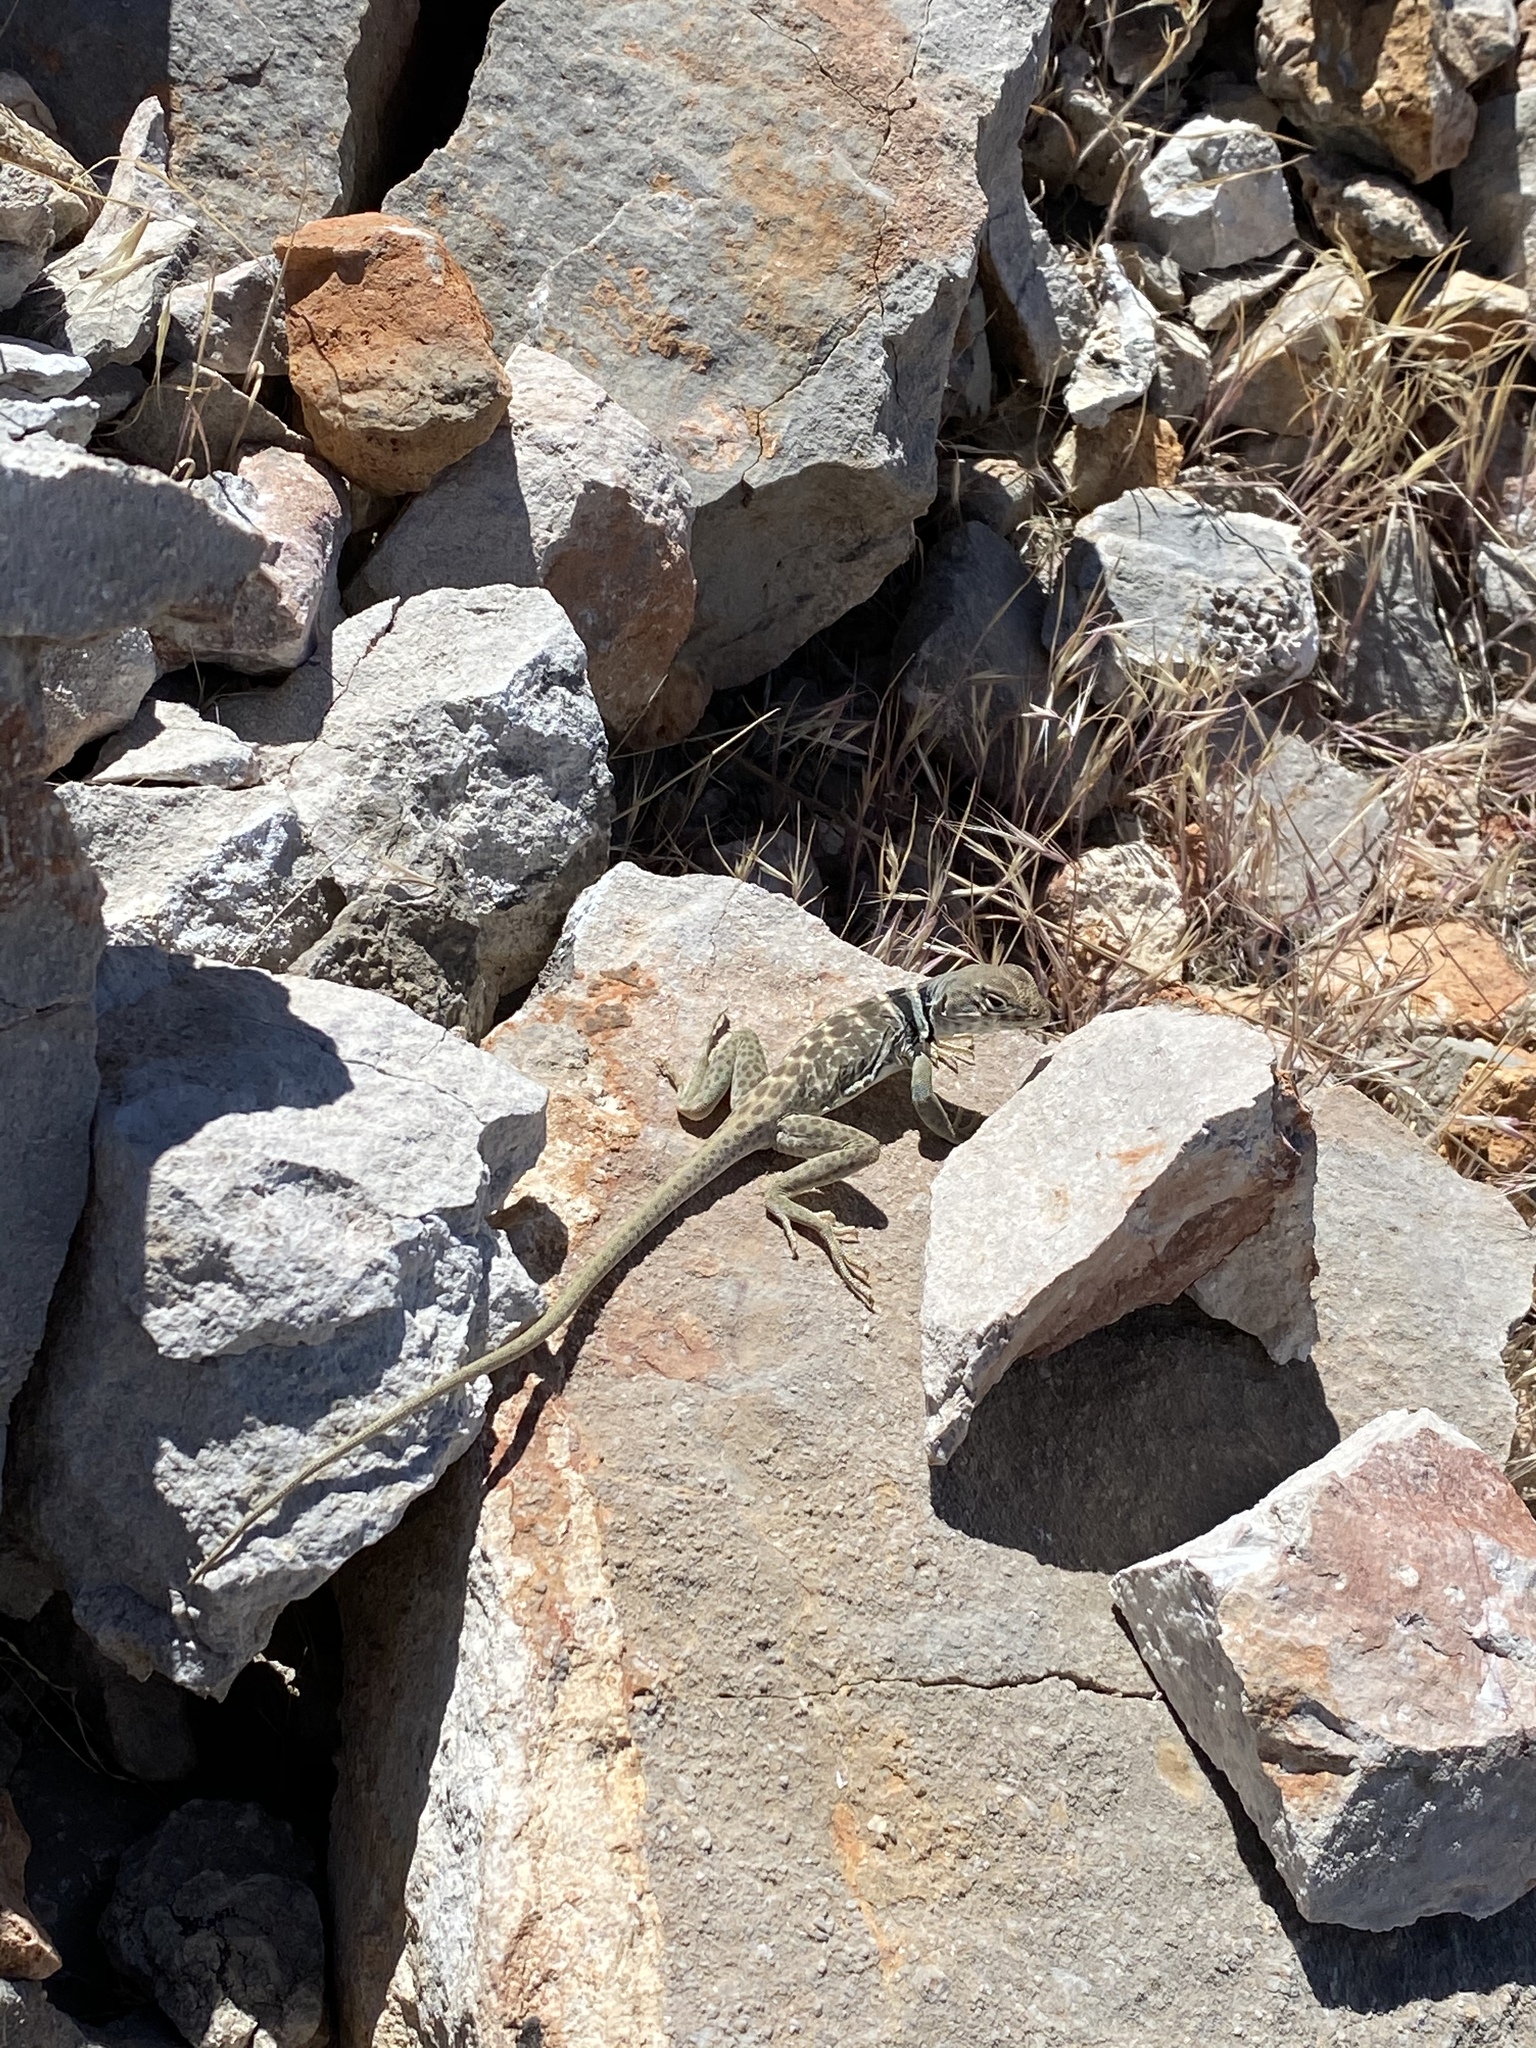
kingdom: Animalia
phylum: Chordata
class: Squamata
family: Crotaphytidae
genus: Crotaphytus
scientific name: Crotaphytus bicinctores
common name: Mojave black-collared lizard
